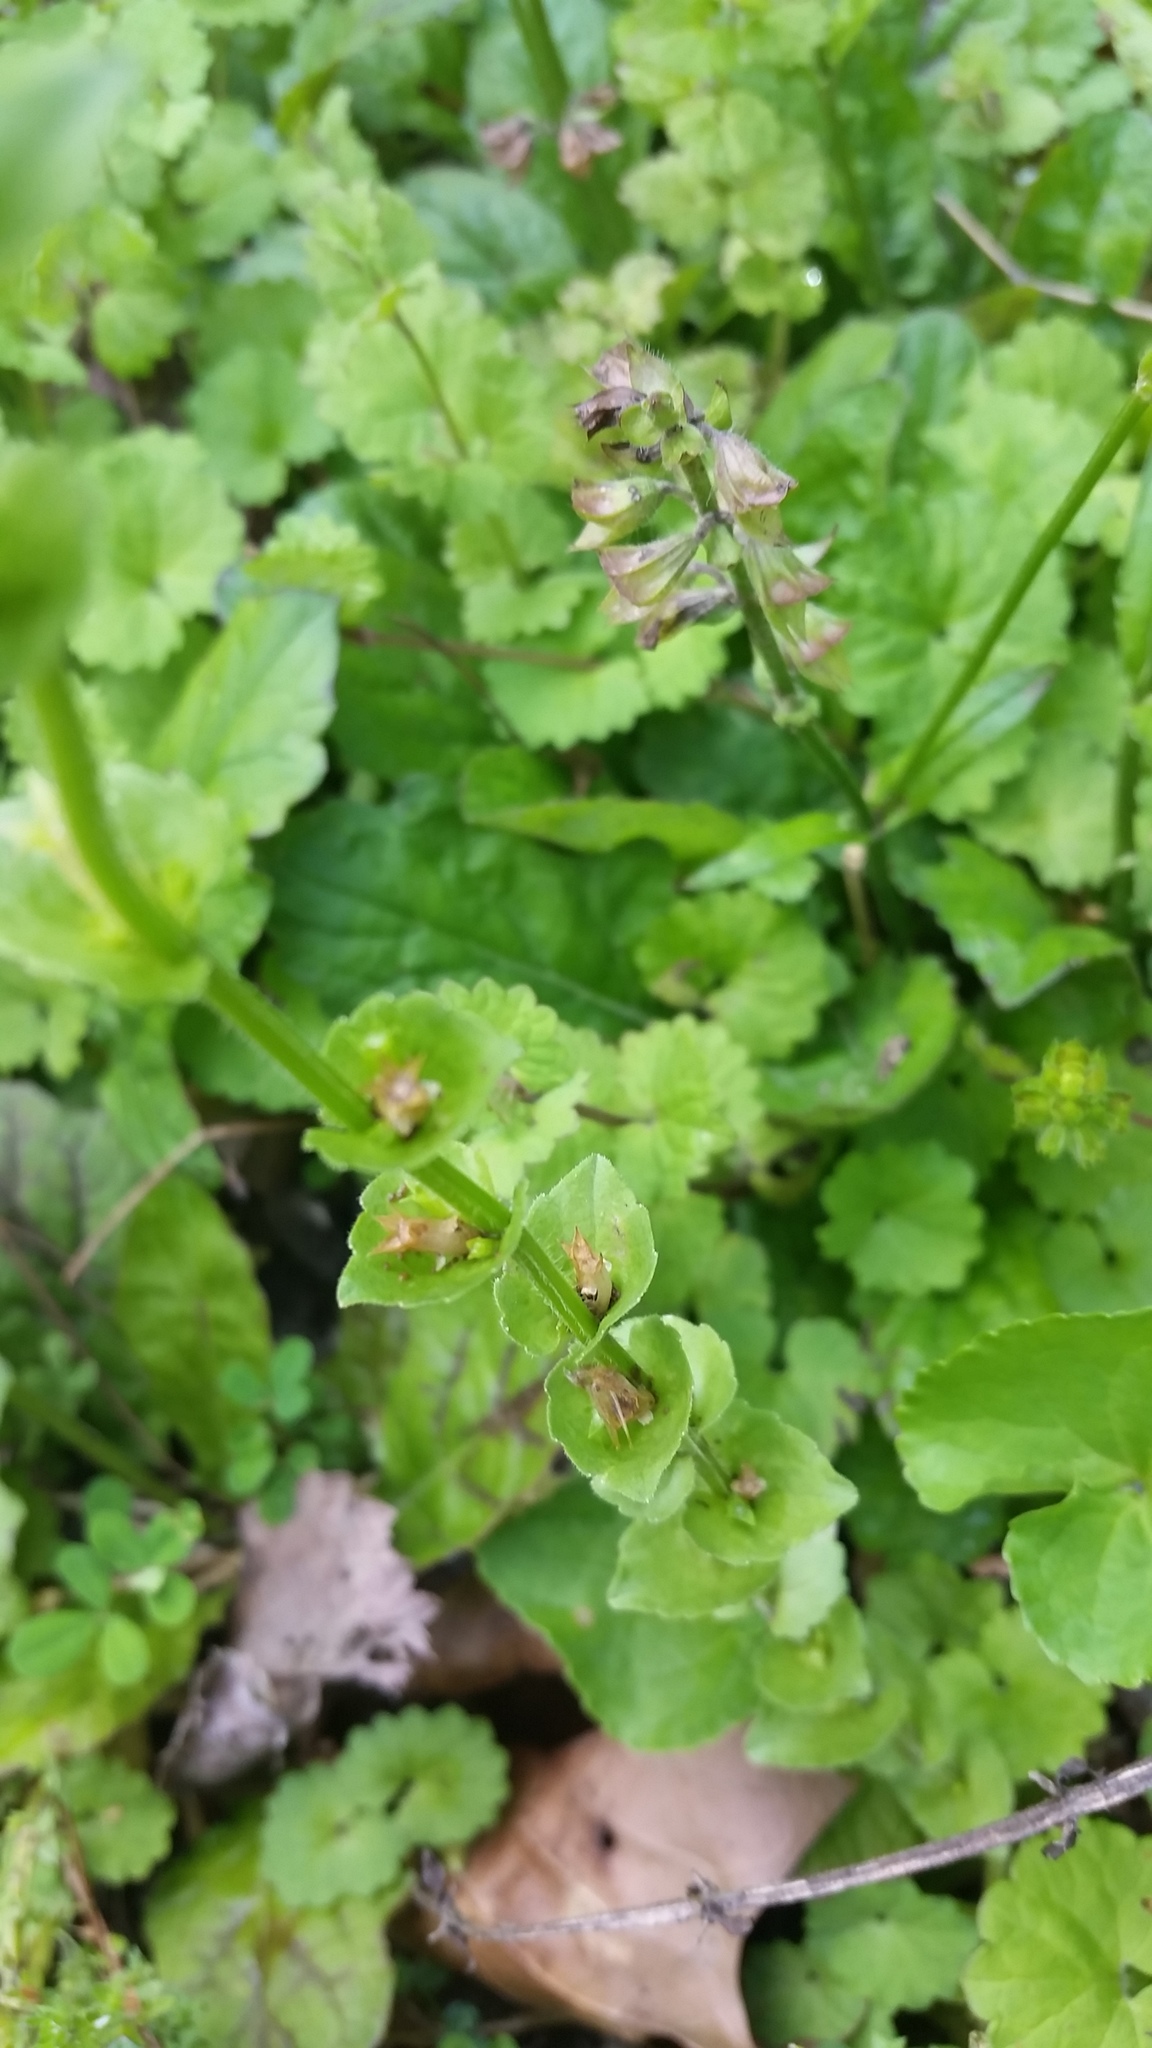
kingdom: Plantae
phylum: Tracheophyta
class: Magnoliopsida
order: Asterales
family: Campanulaceae
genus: Triodanis
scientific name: Triodanis perfoliata
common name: Clasping venus' looking-glass
